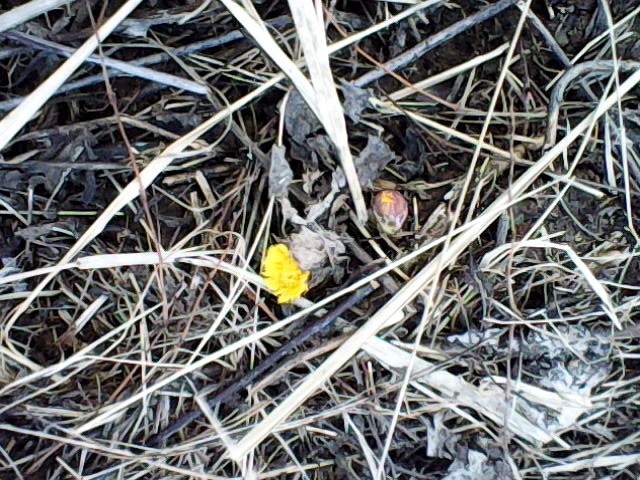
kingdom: Plantae
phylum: Tracheophyta
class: Magnoliopsida
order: Asterales
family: Asteraceae
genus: Tussilago
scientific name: Tussilago farfara
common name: Coltsfoot
